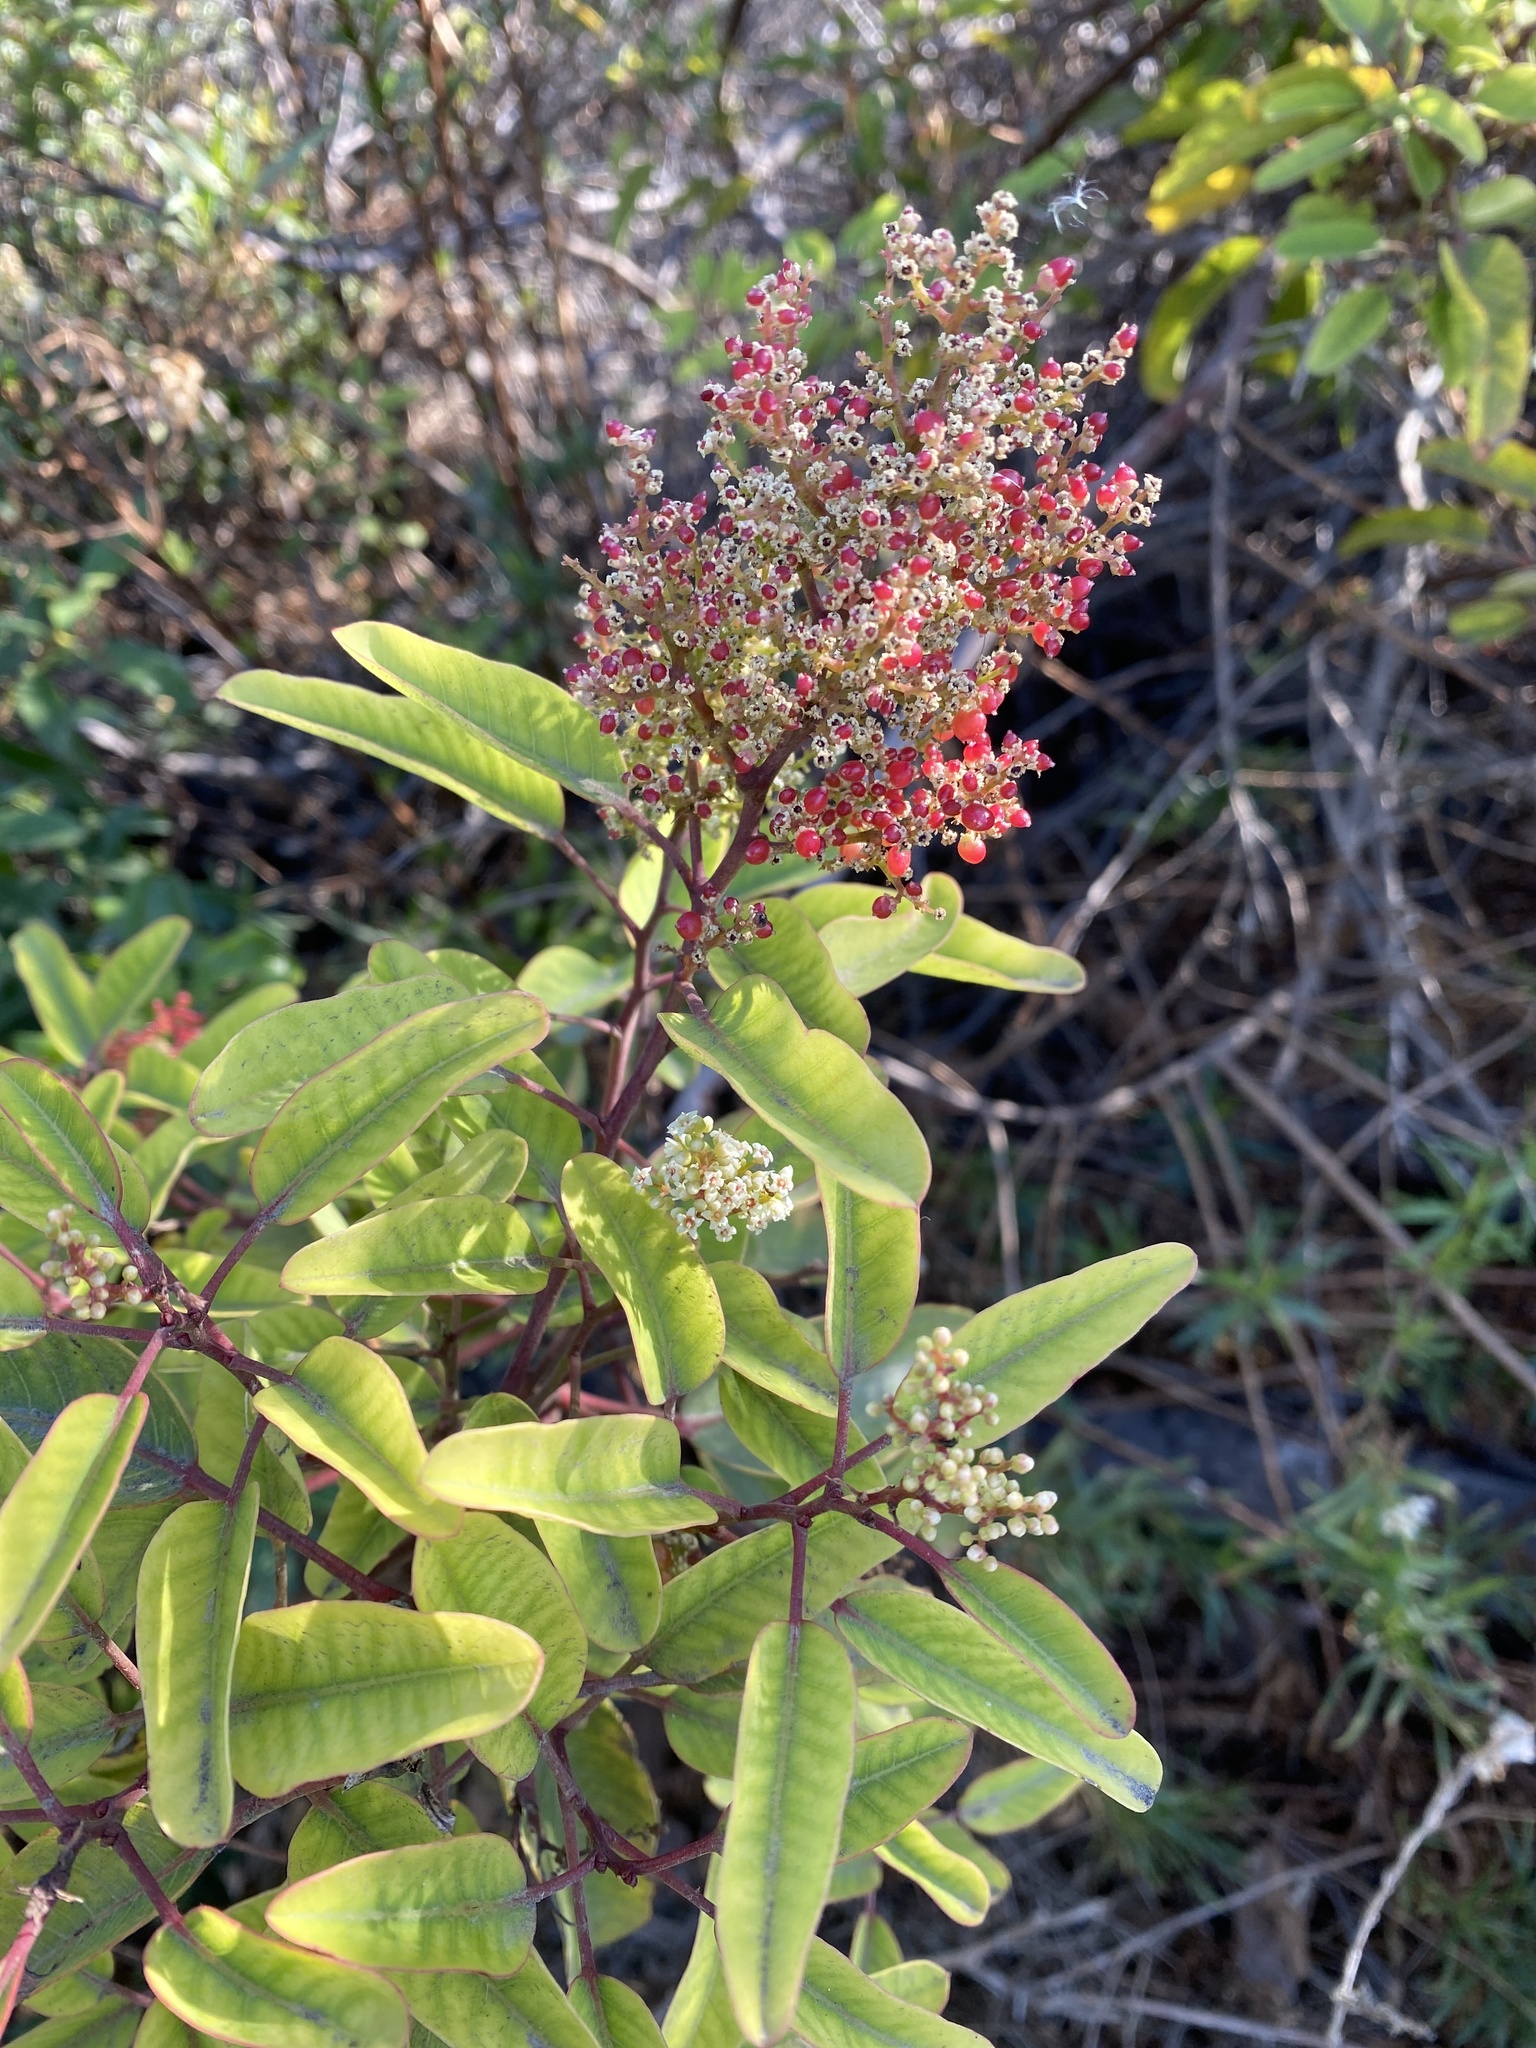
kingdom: Plantae
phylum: Tracheophyta
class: Magnoliopsida
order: Sapindales
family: Anacardiaceae
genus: Malosma
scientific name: Malosma laurina
